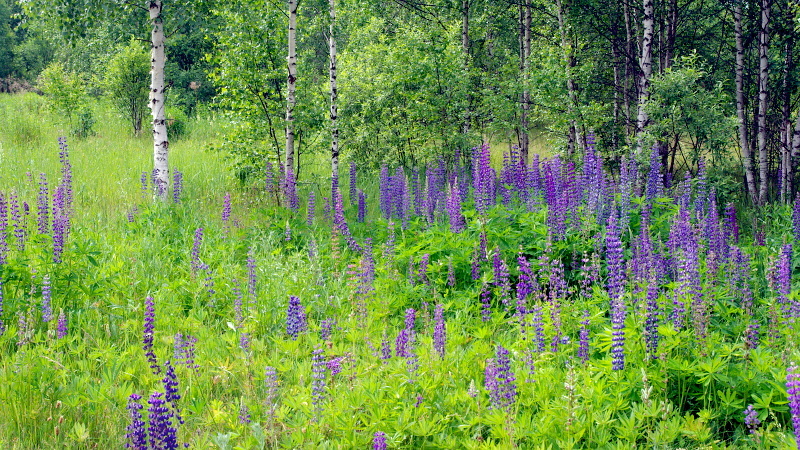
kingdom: Plantae
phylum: Tracheophyta
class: Magnoliopsida
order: Fabales
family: Fabaceae
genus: Lupinus
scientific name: Lupinus polyphyllus
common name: Garden lupin
